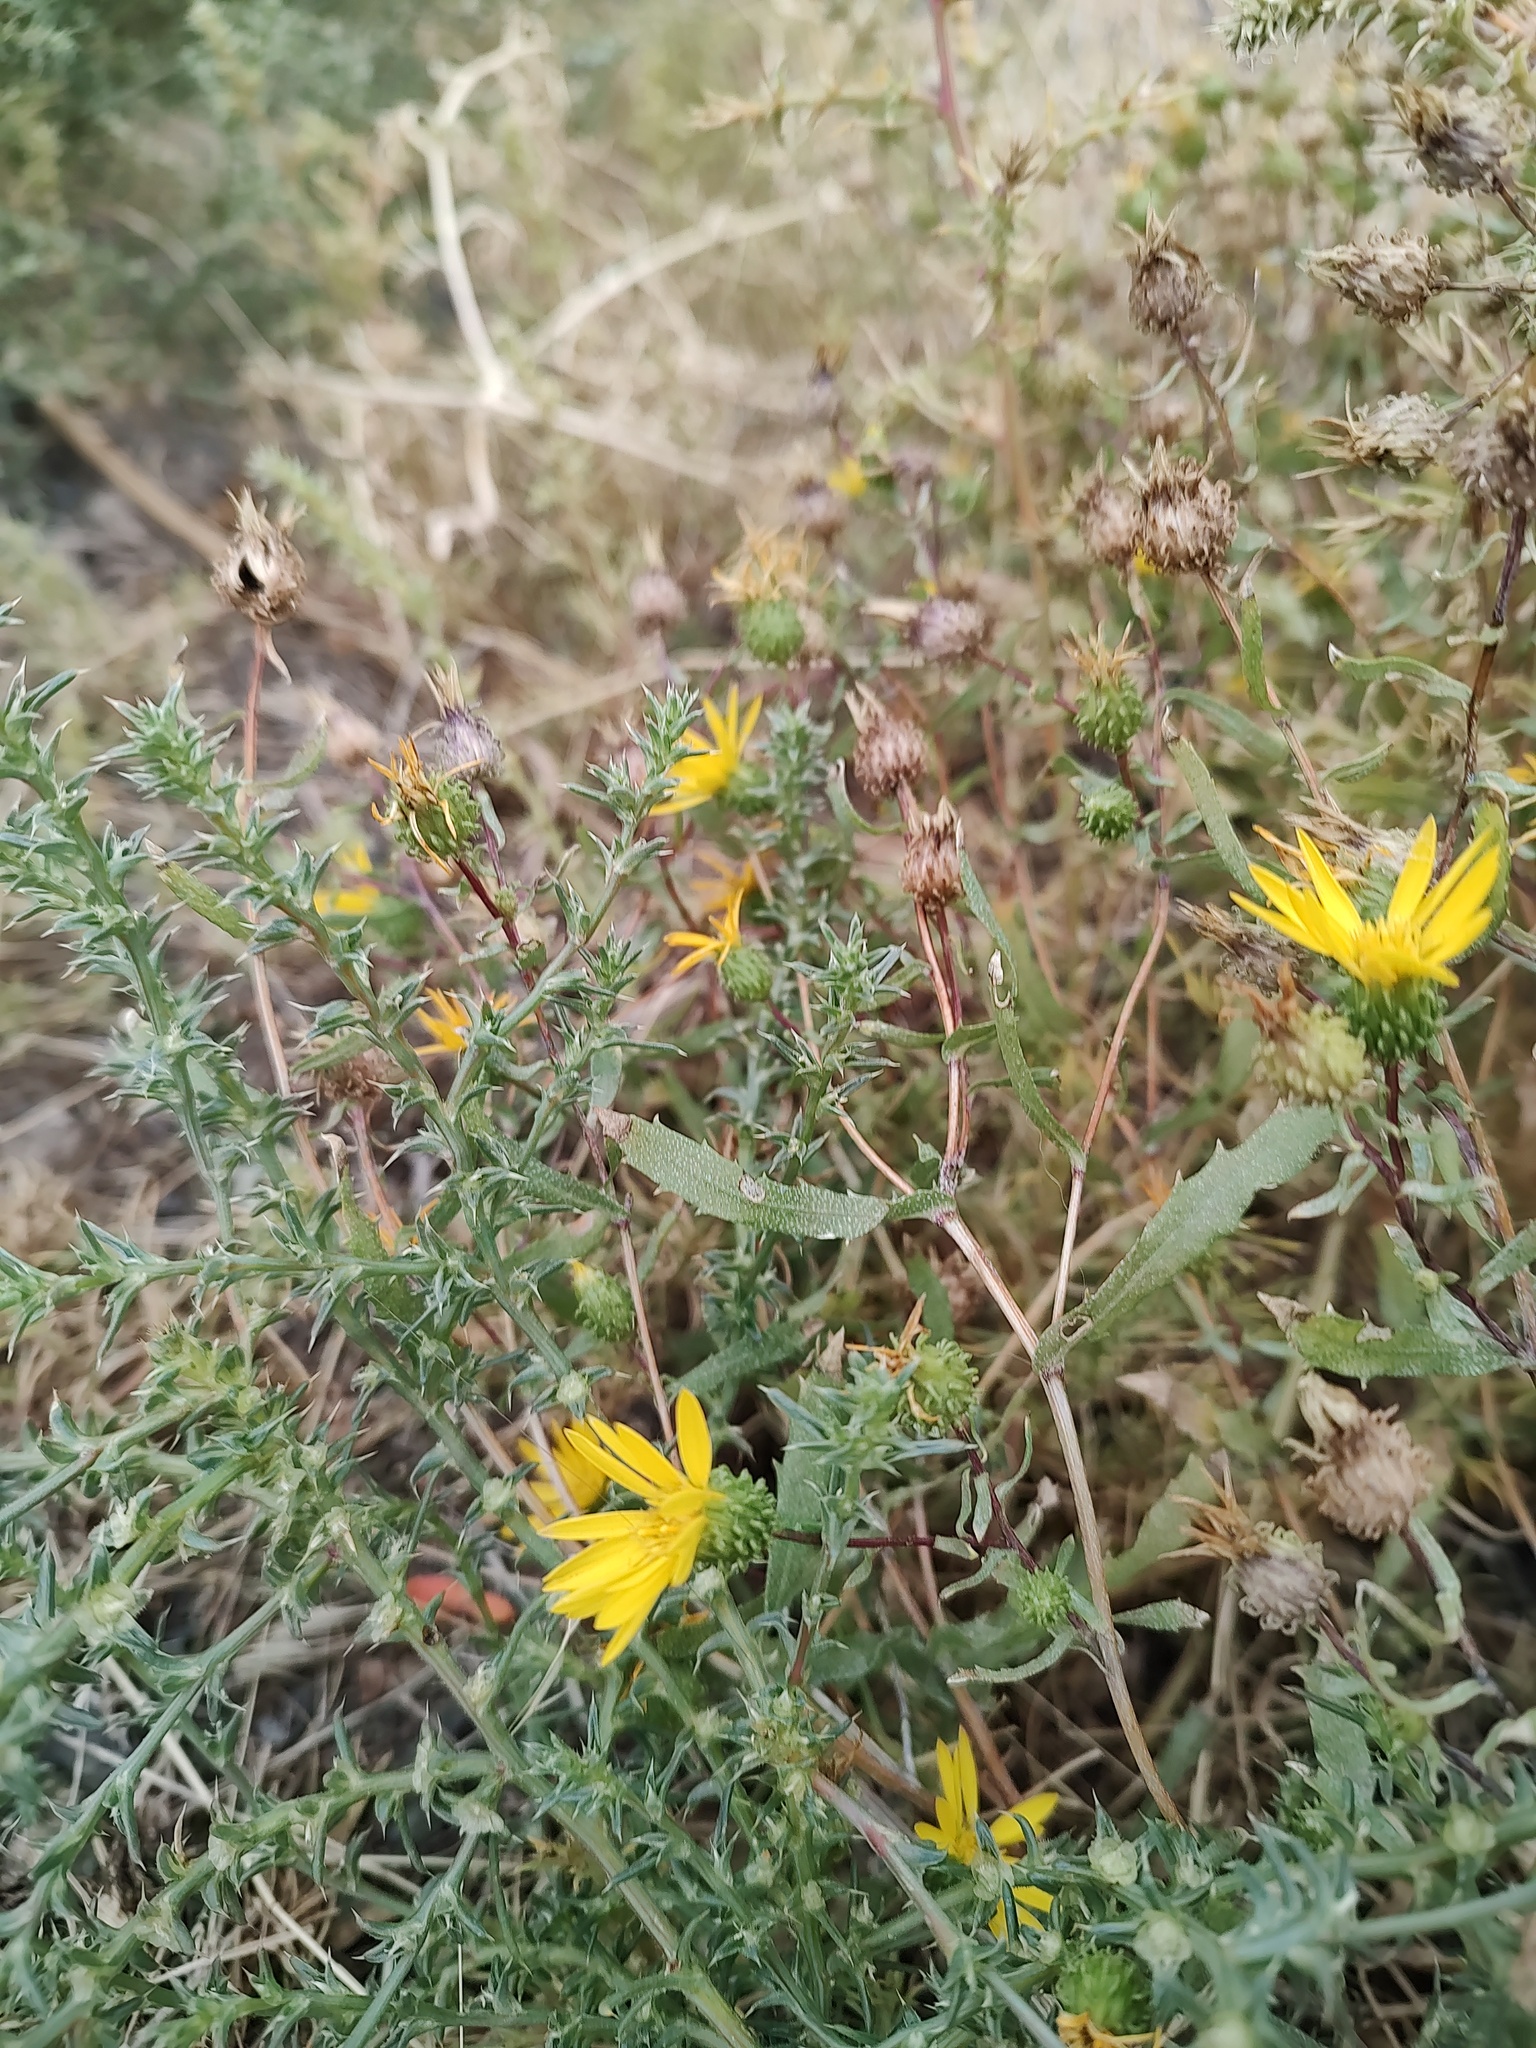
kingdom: Plantae
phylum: Tracheophyta
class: Magnoliopsida
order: Asterales
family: Asteraceae
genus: Grindelia
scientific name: Grindelia squarrosa
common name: Curly-cup gumweed
